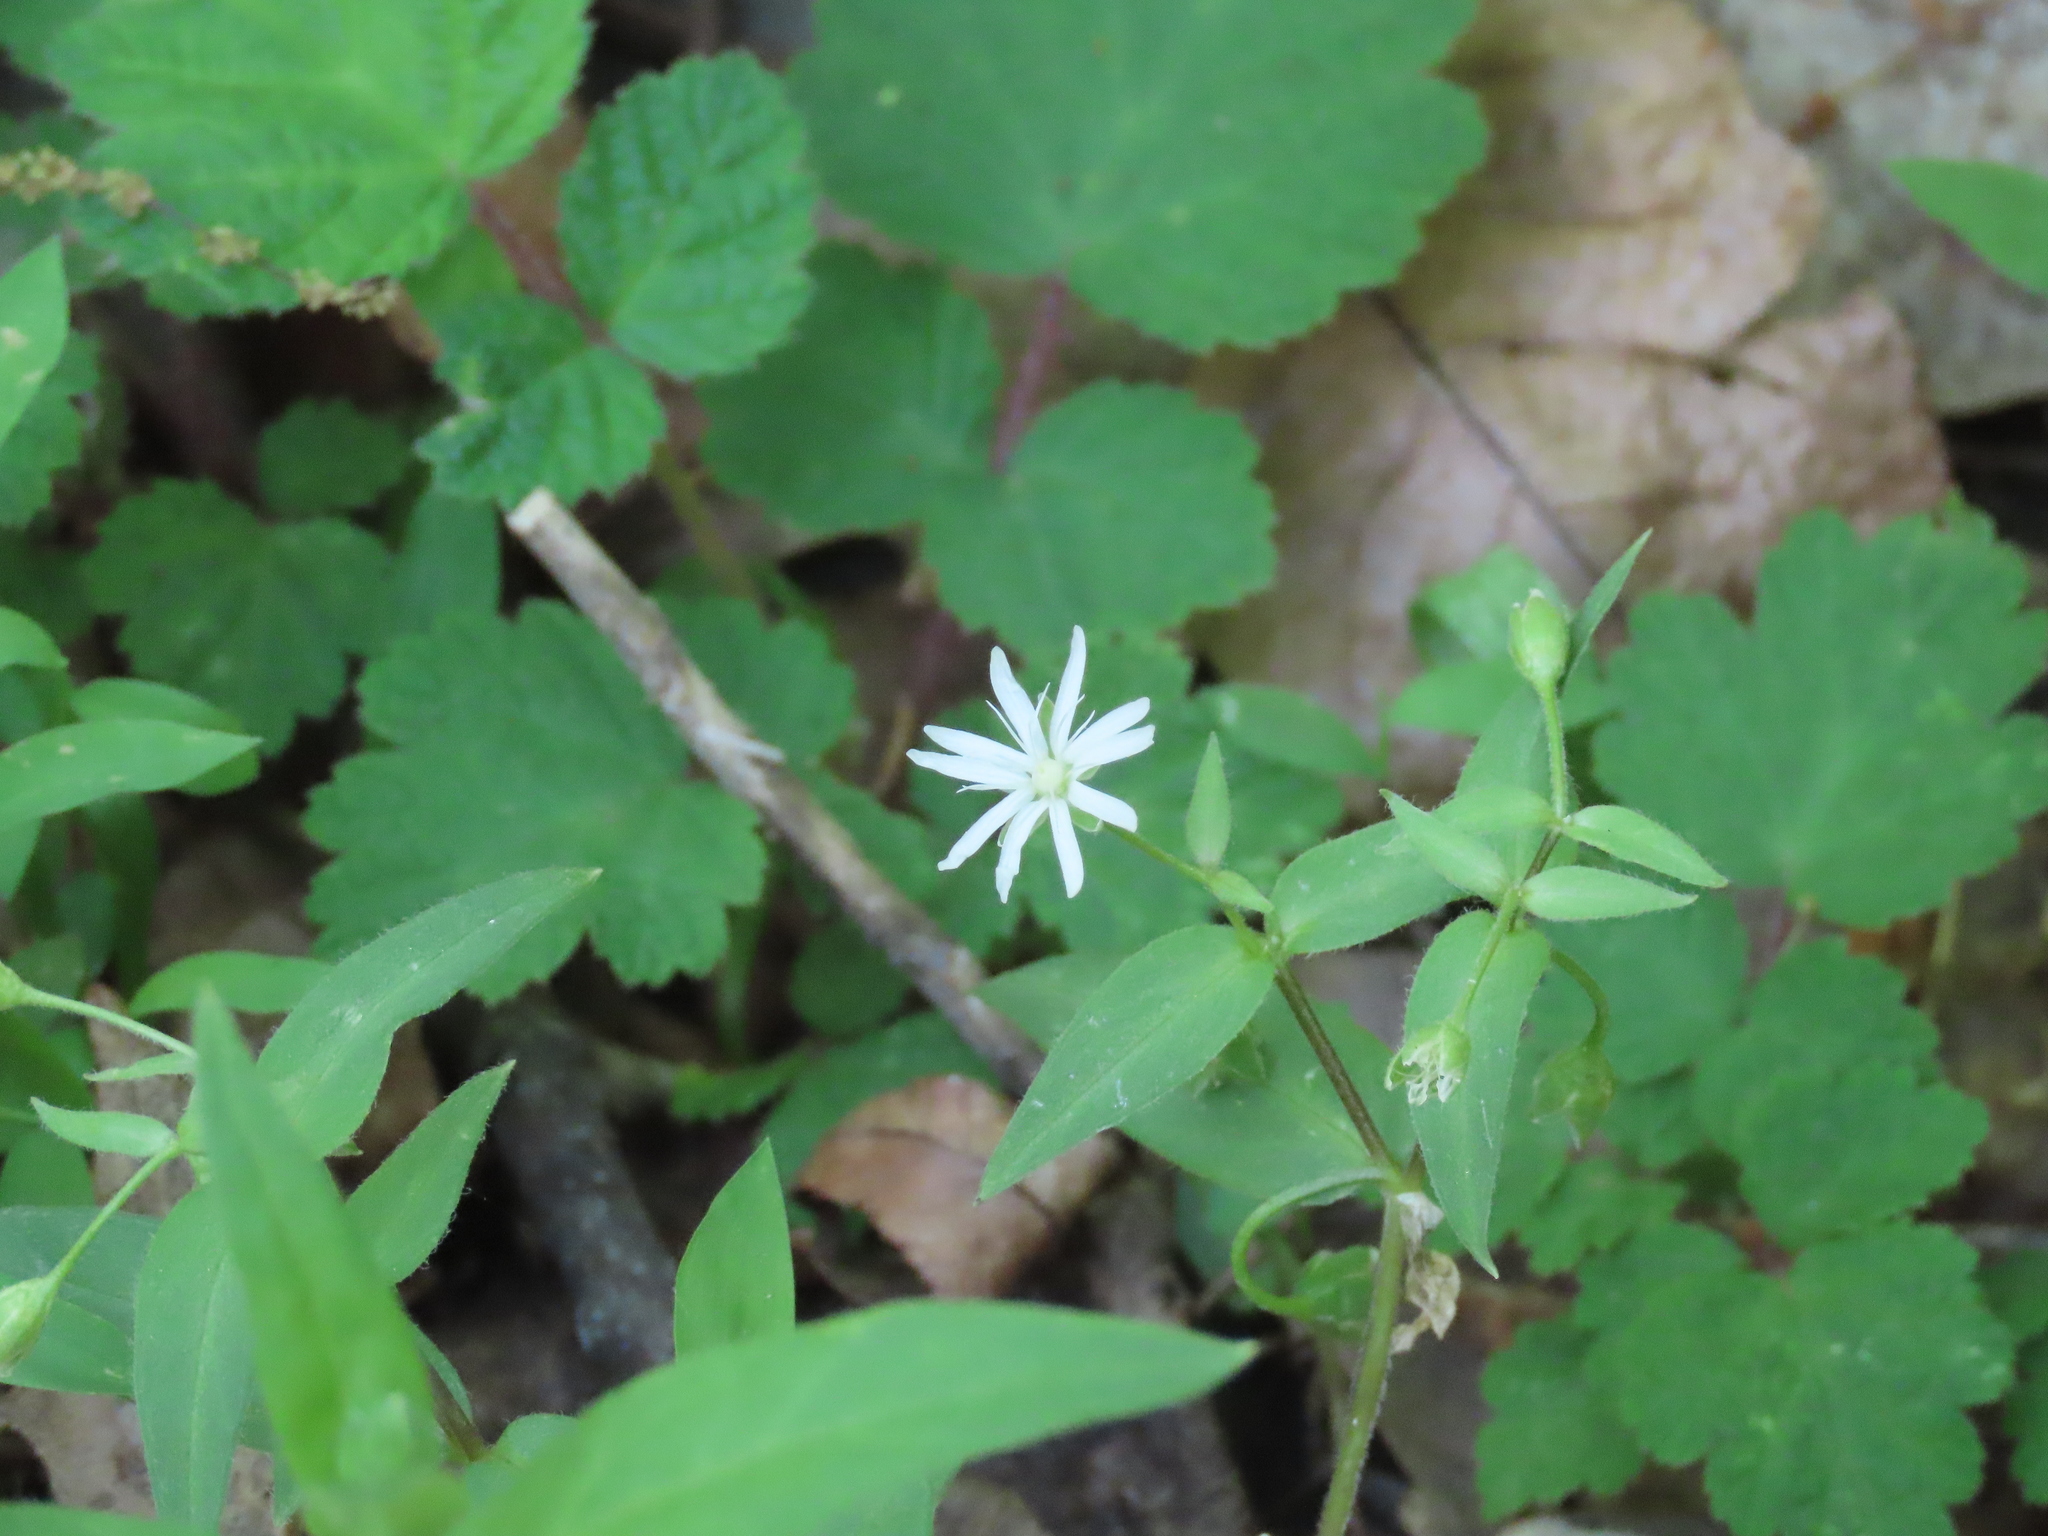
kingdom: Plantae
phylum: Tracheophyta
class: Magnoliopsida
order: Caryophyllales
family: Caryophyllaceae
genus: Stellaria
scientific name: Stellaria pubera
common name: Star chickweed
